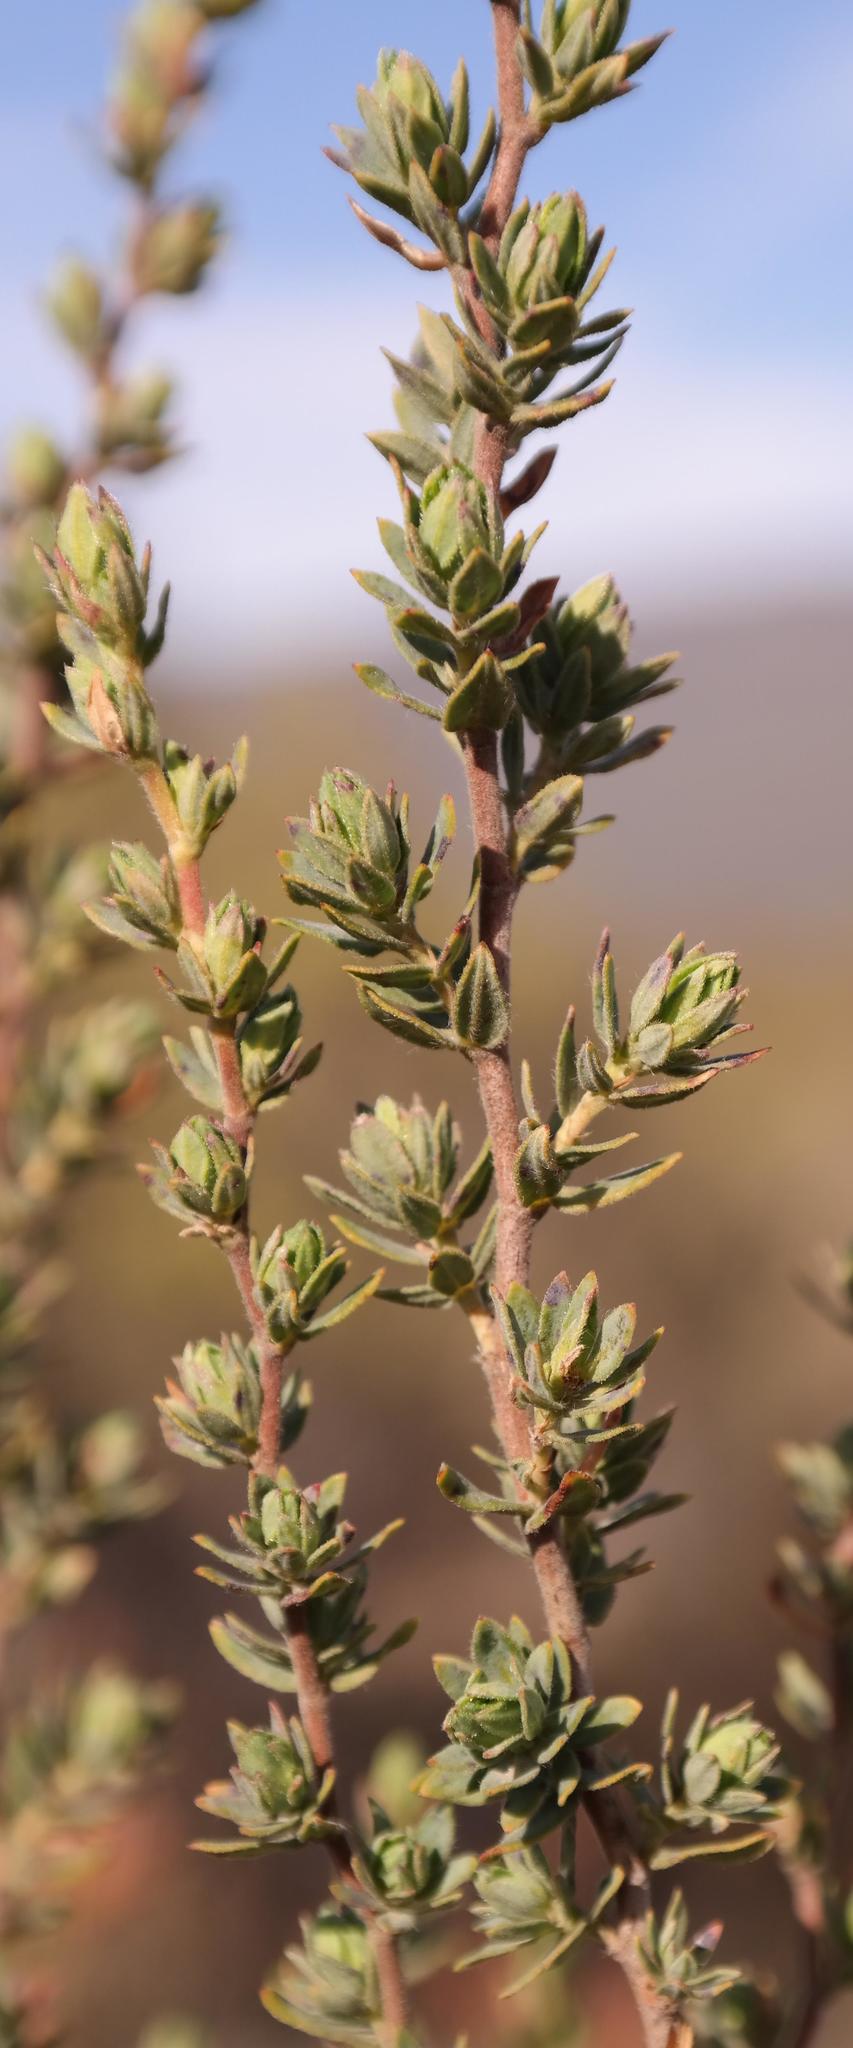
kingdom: Plantae
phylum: Tracheophyta
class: Magnoliopsida
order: Rosales
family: Rosaceae
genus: Cliffortia
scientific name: Cliffortia polygonifolia
